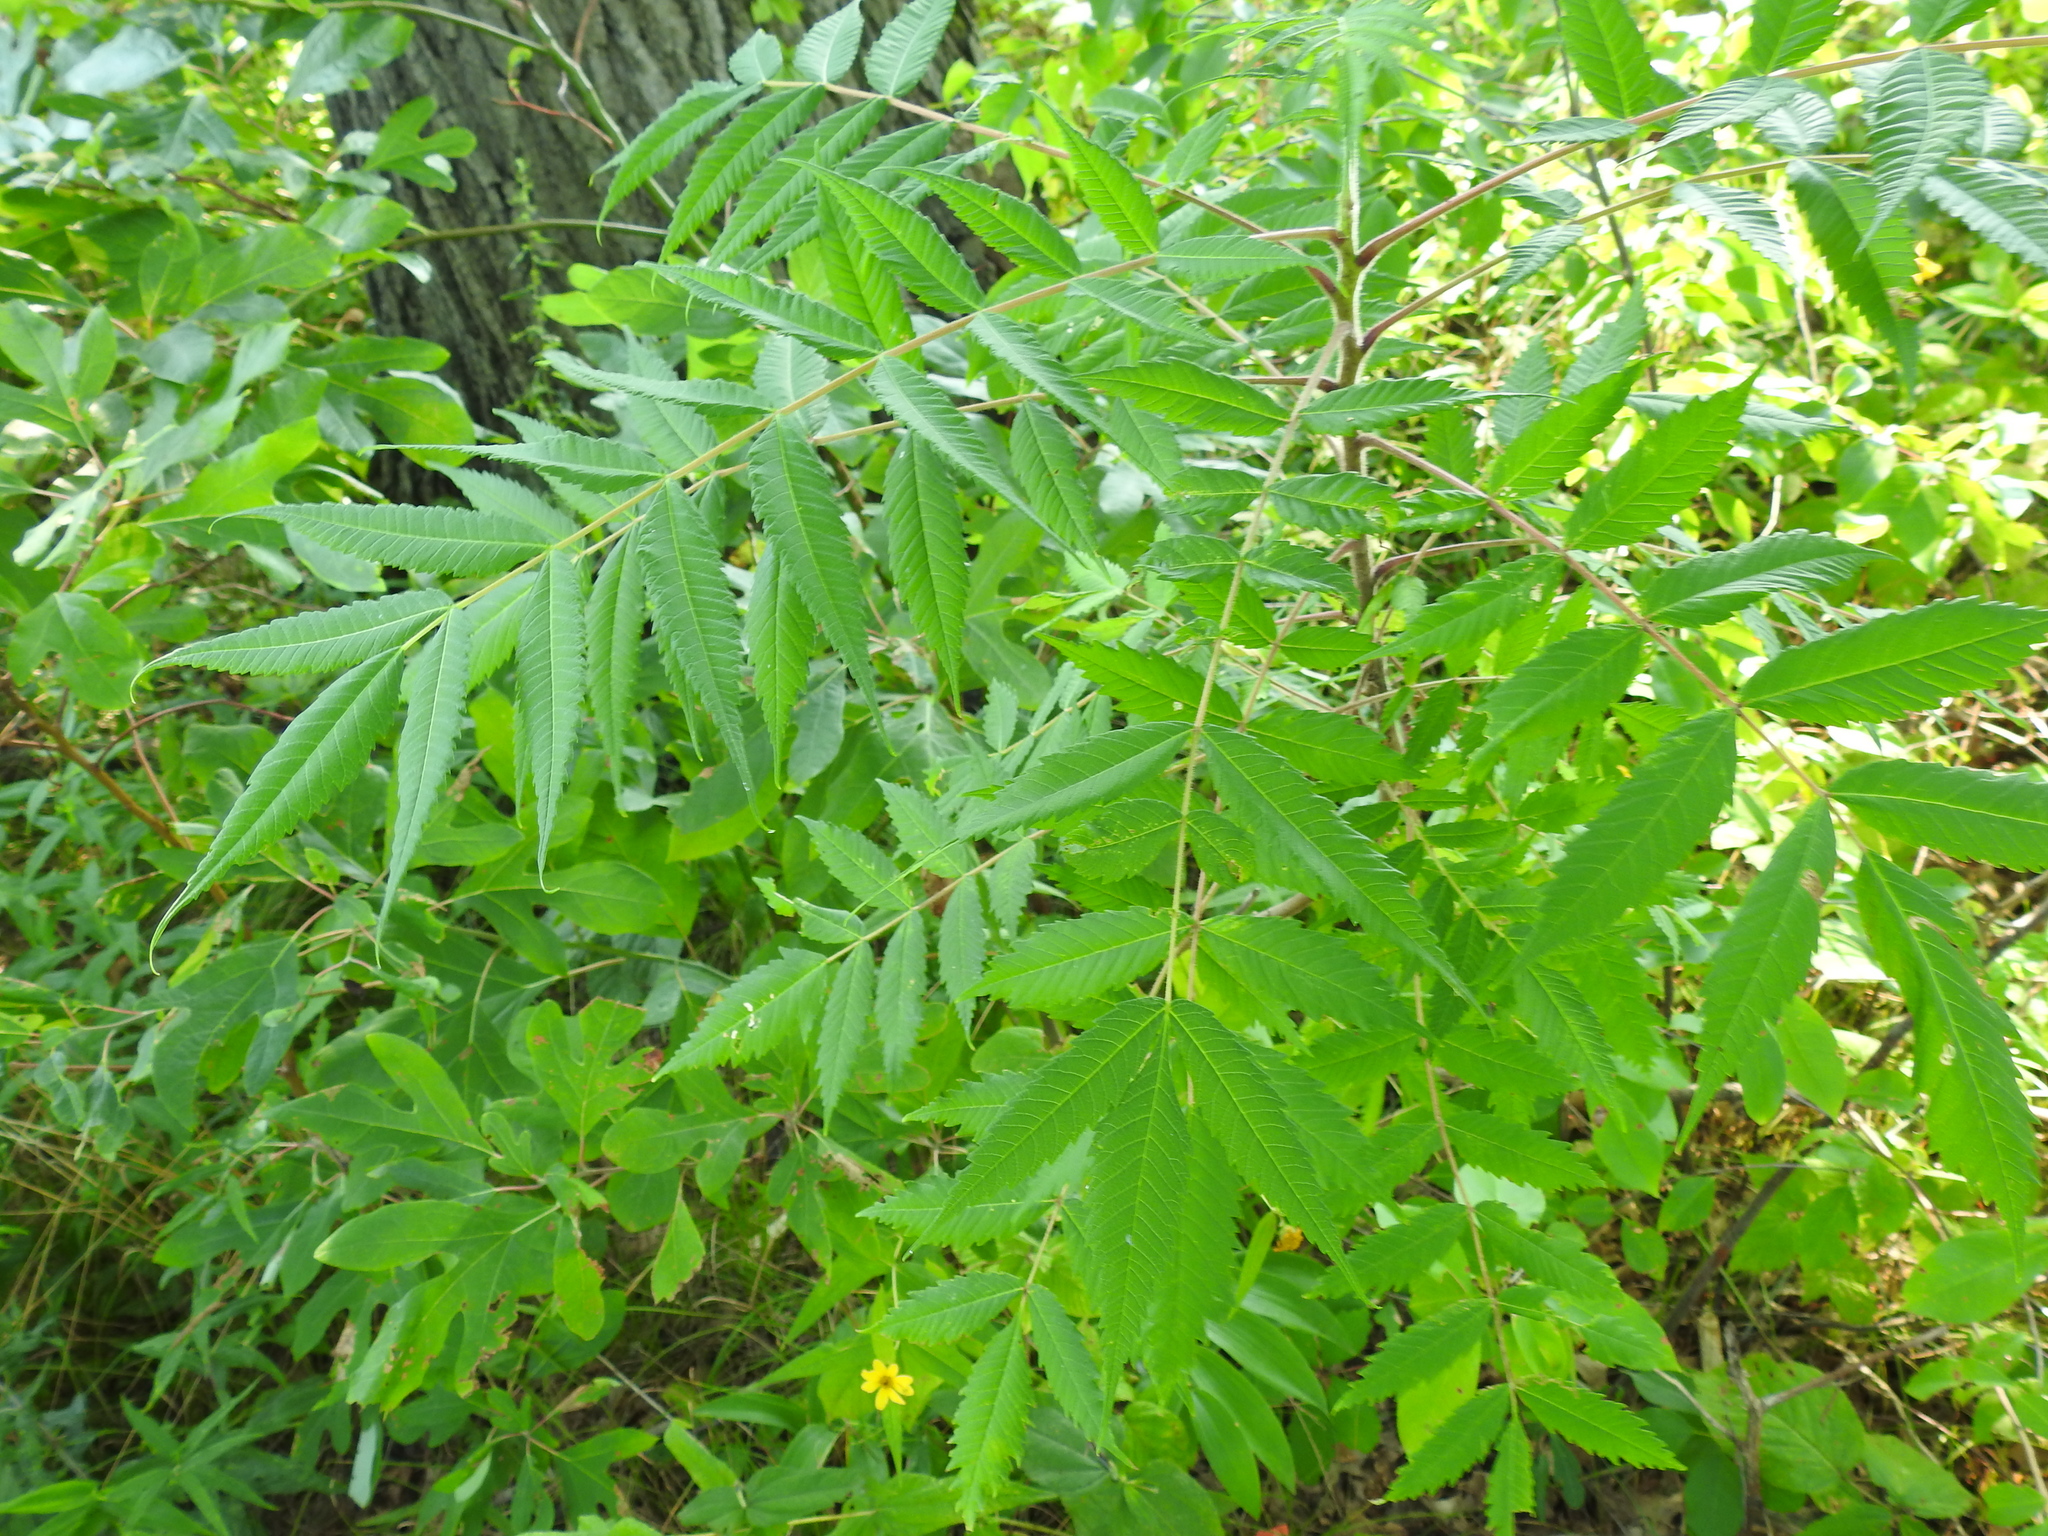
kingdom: Plantae
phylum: Tracheophyta
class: Magnoliopsida
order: Sapindales
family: Anacardiaceae
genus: Rhus
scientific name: Rhus typhina
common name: Staghorn sumac
